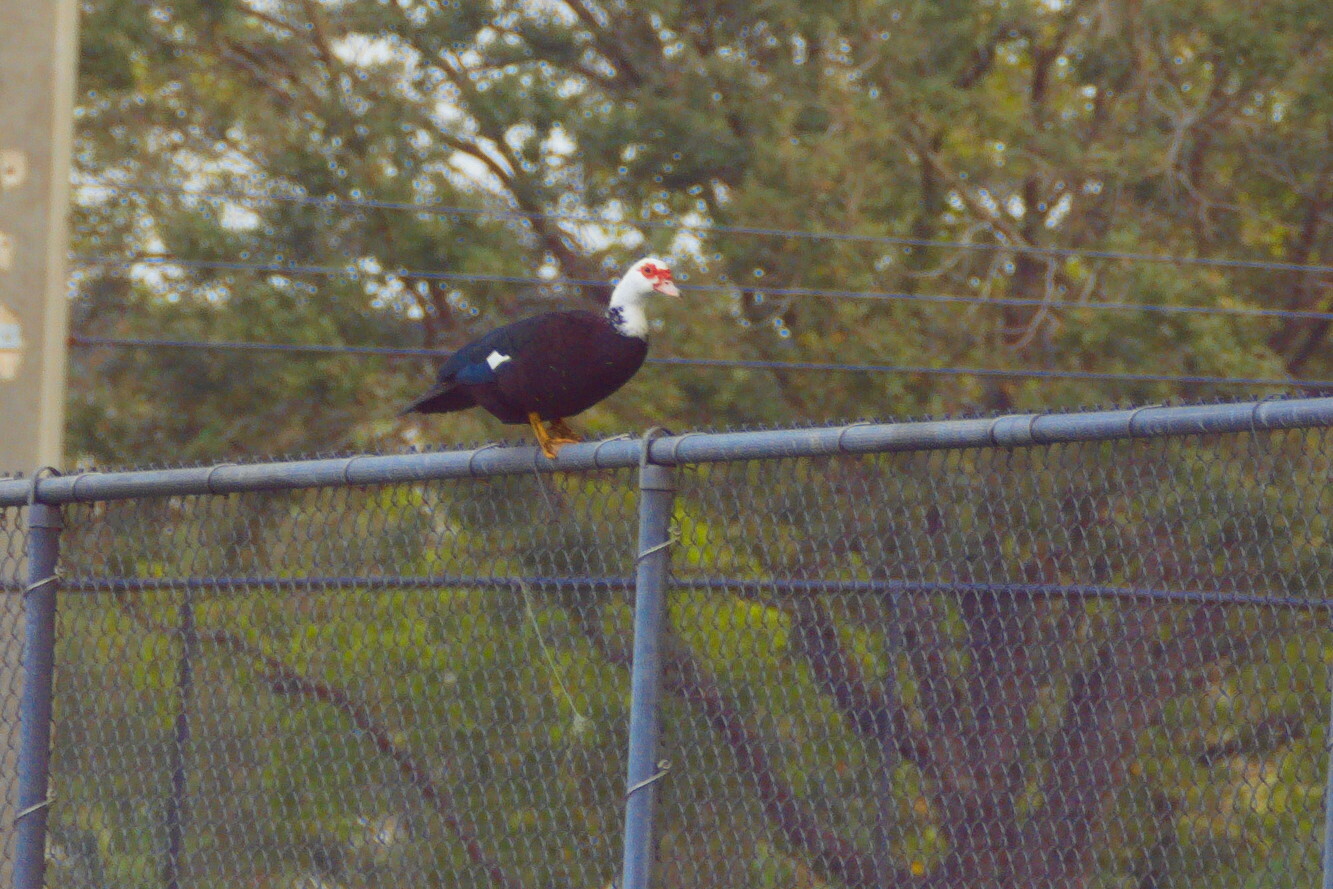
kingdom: Animalia
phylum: Chordata
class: Aves
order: Anseriformes
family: Anatidae
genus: Cairina
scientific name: Cairina moschata
